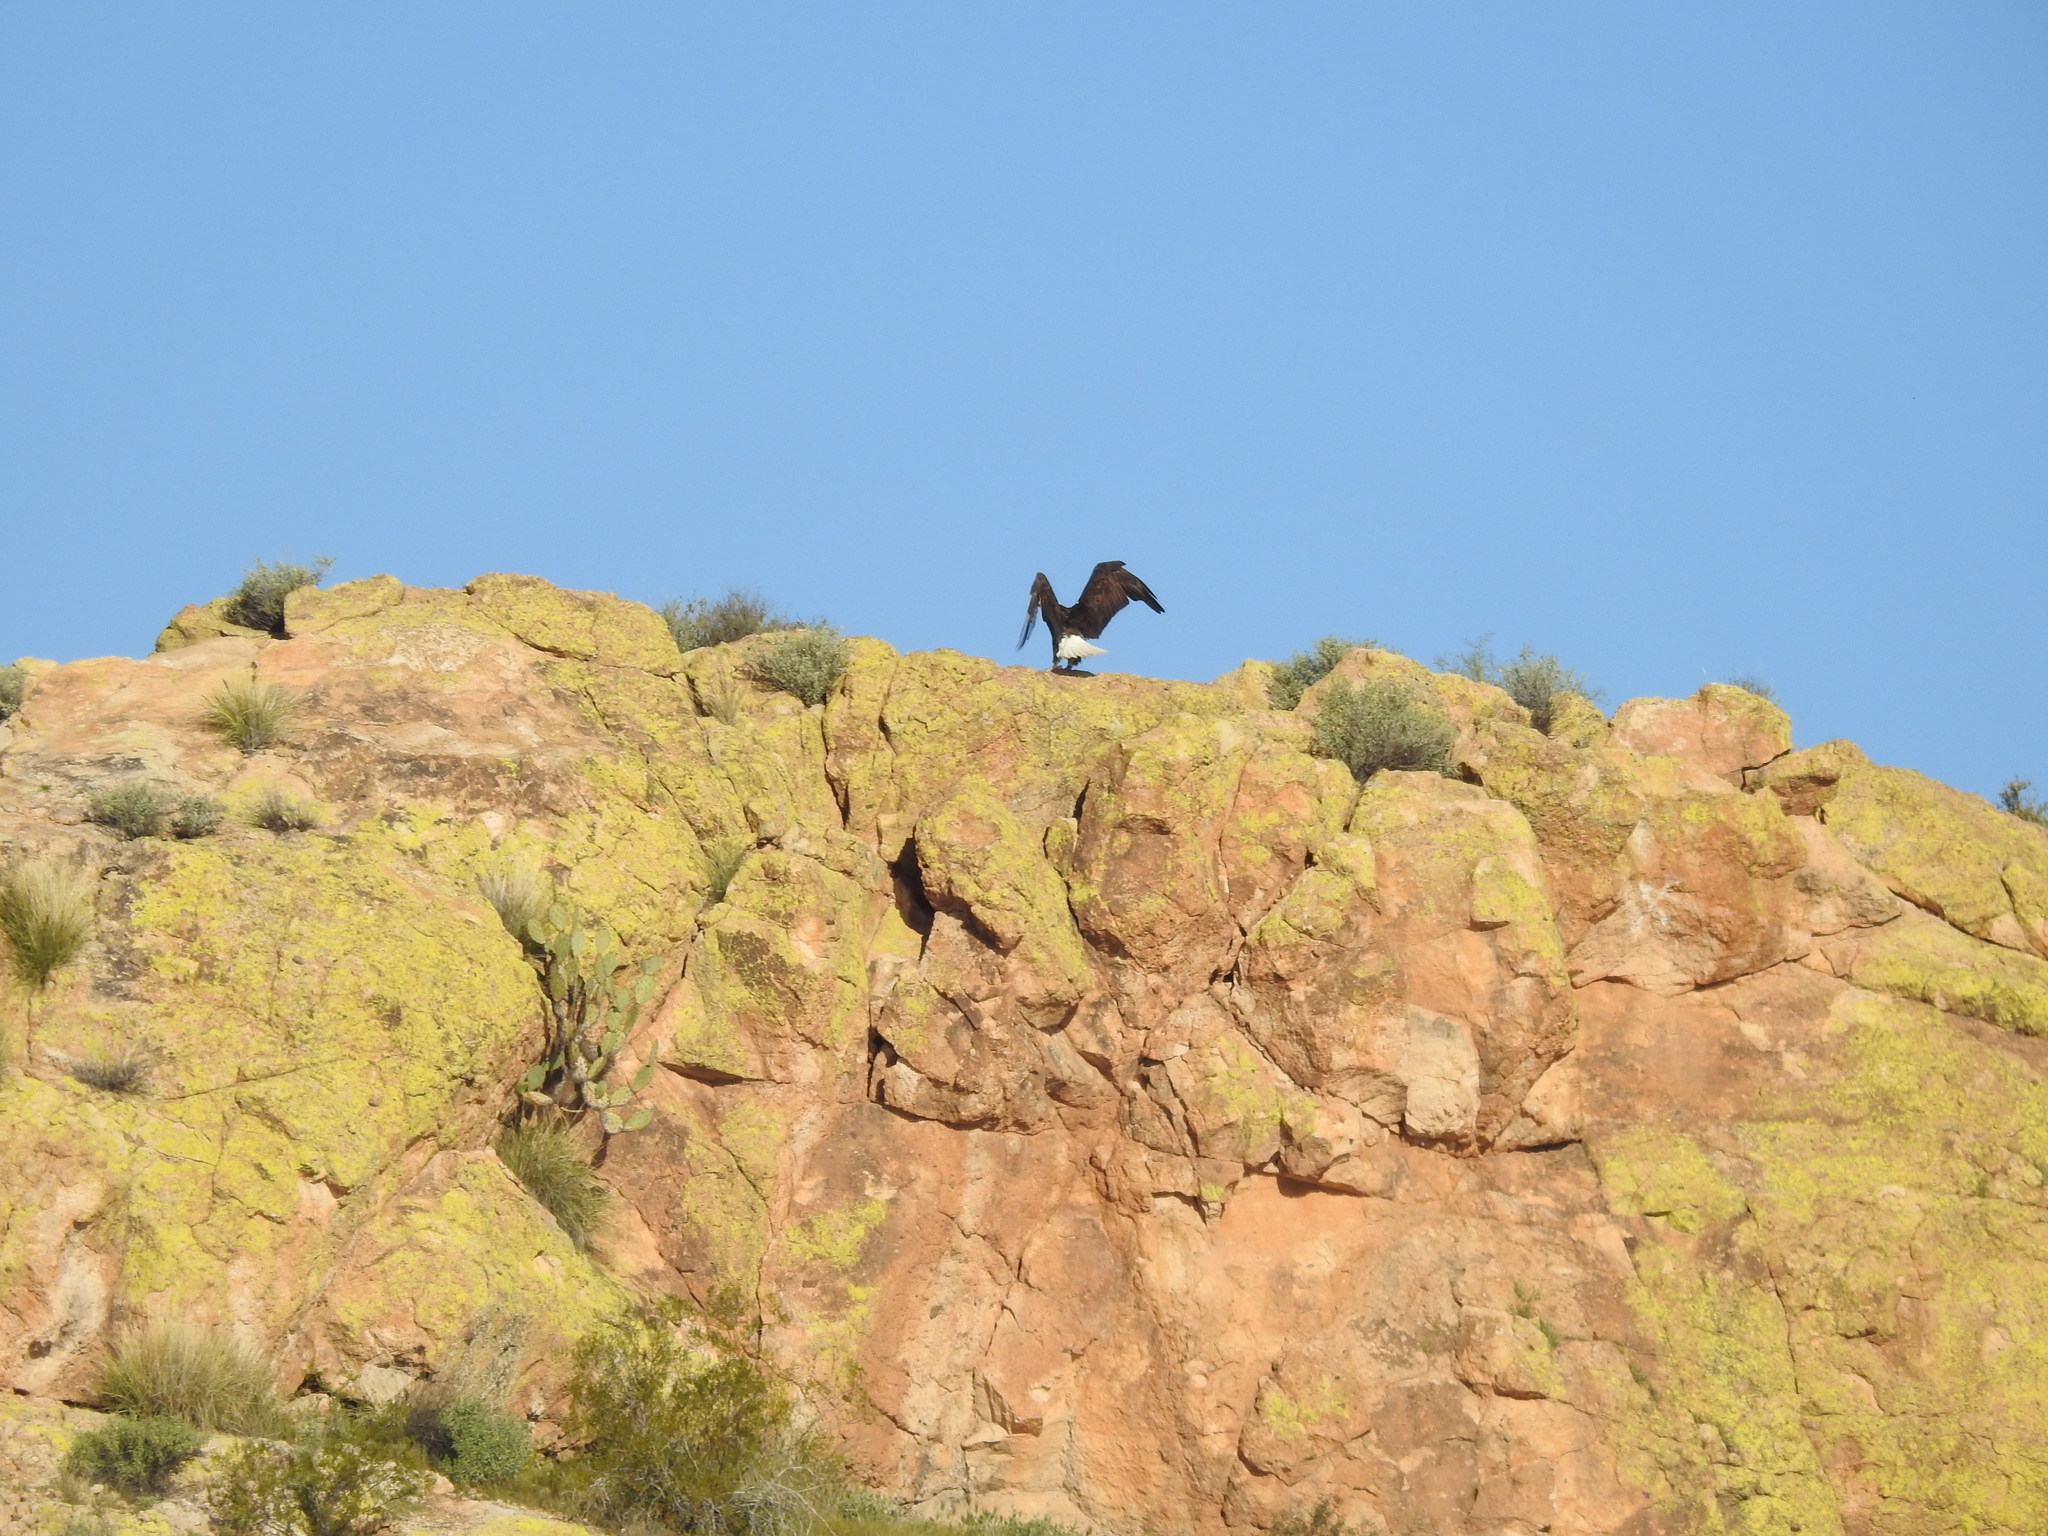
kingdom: Animalia
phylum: Chordata
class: Aves
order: Accipitriformes
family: Accipitridae
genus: Haliaeetus
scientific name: Haliaeetus leucocephalus
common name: Bald eagle
